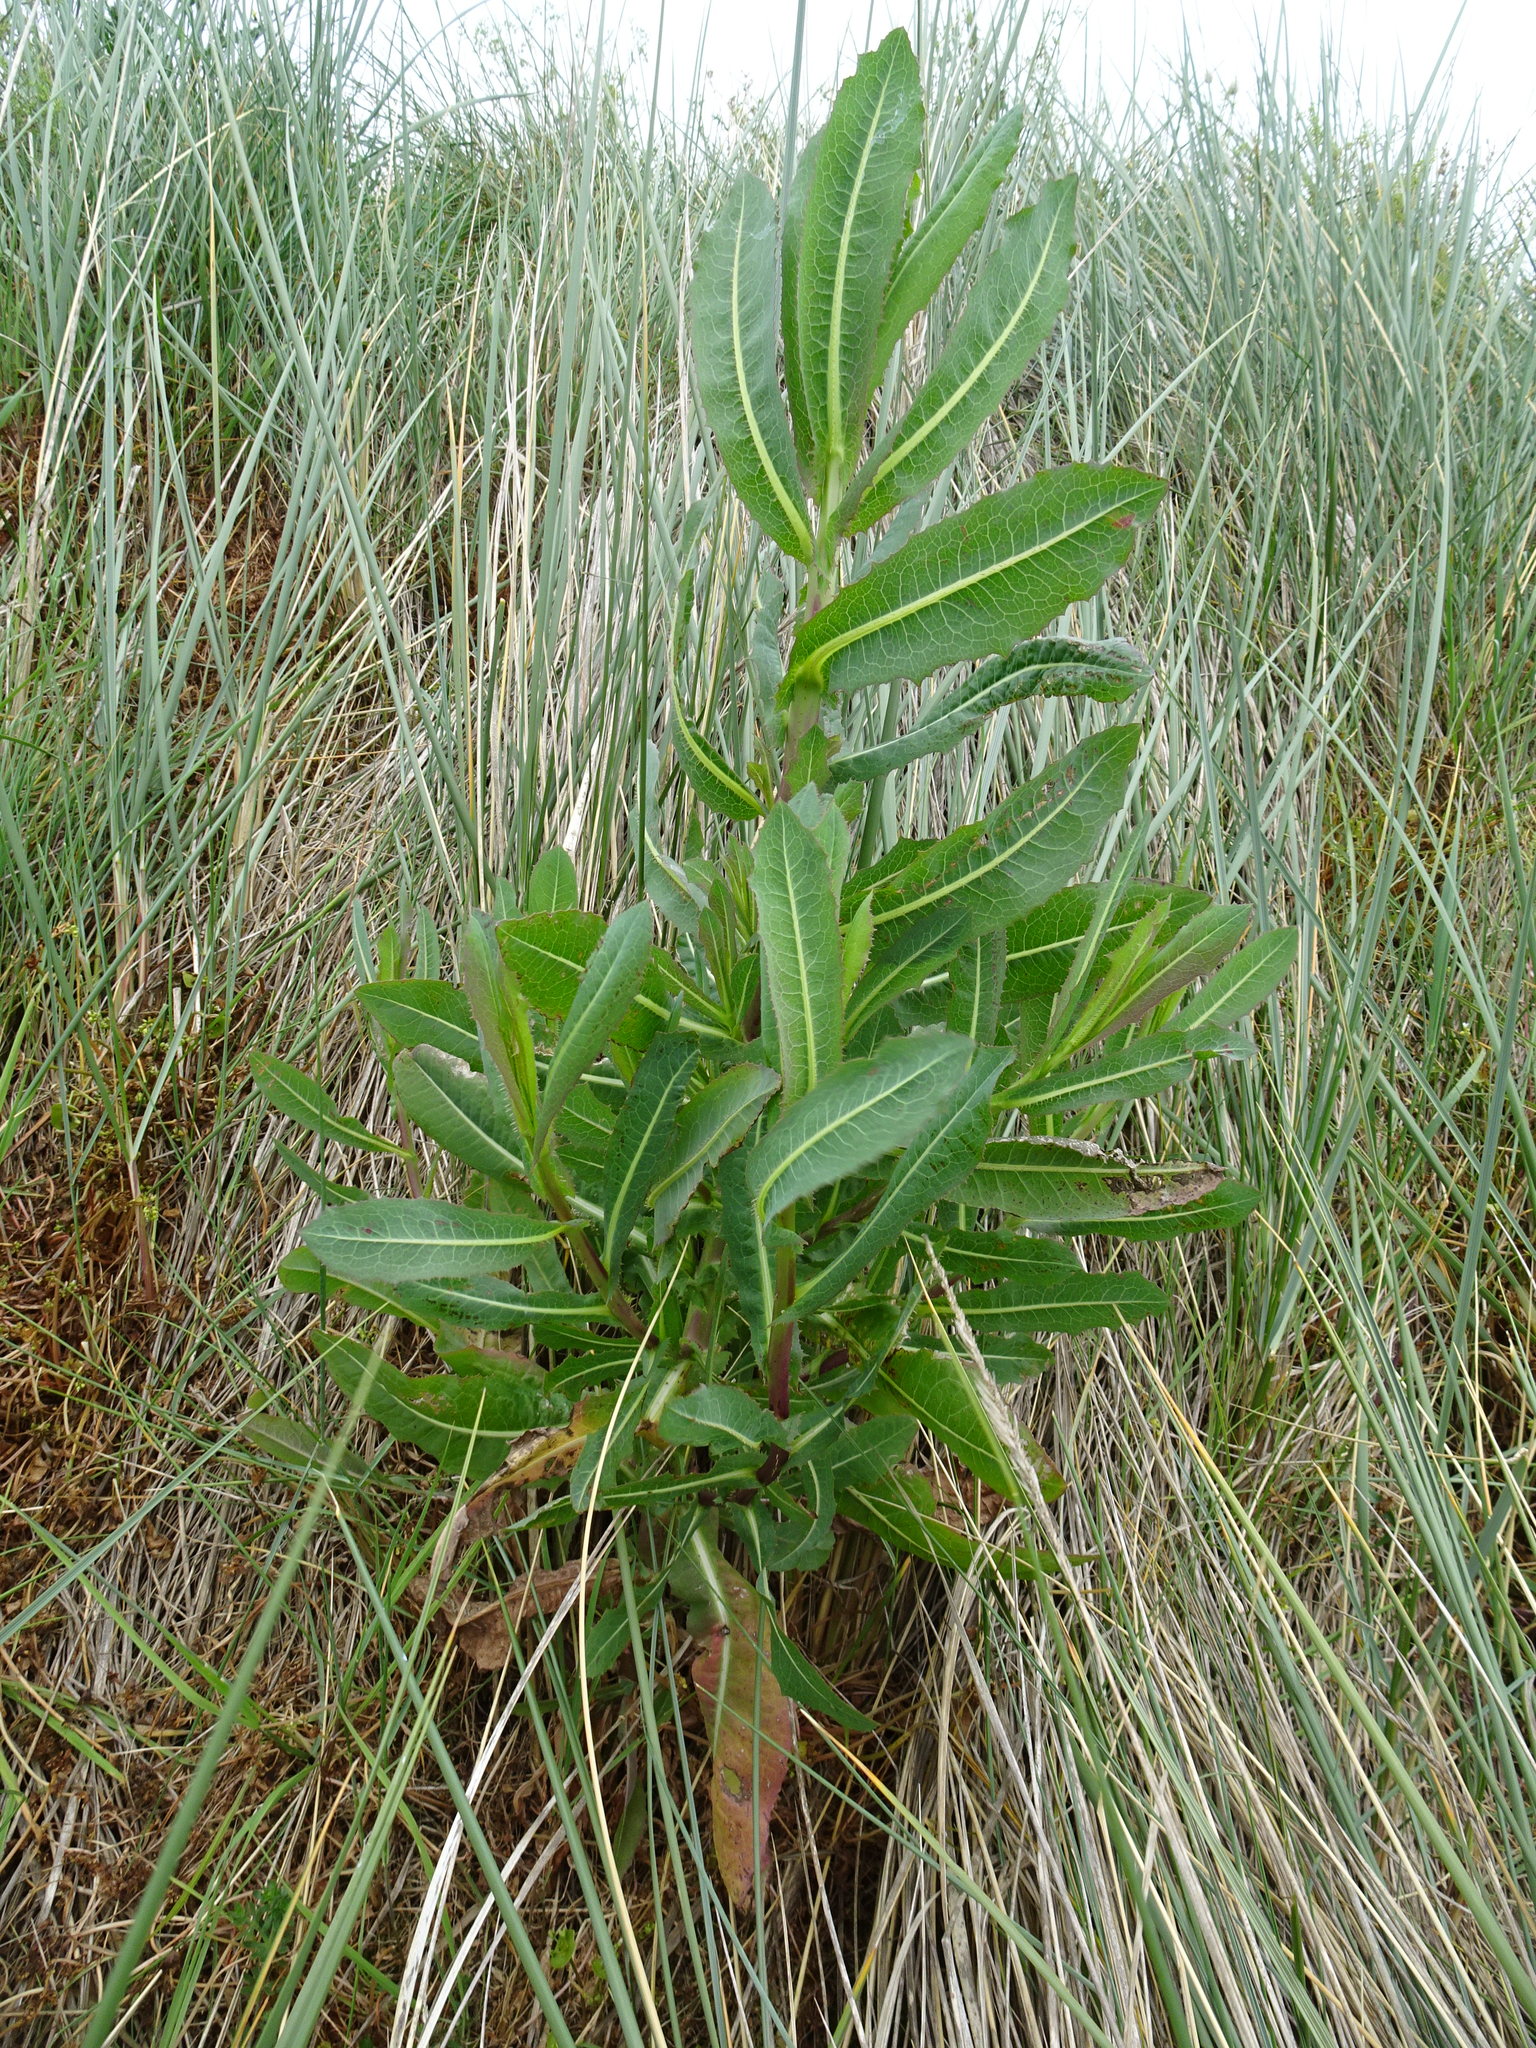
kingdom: Plantae
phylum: Tracheophyta
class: Magnoliopsida
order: Asterales
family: Asteraceae
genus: Lactuca
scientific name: Lactuca serriola
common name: Prickly lettuce
